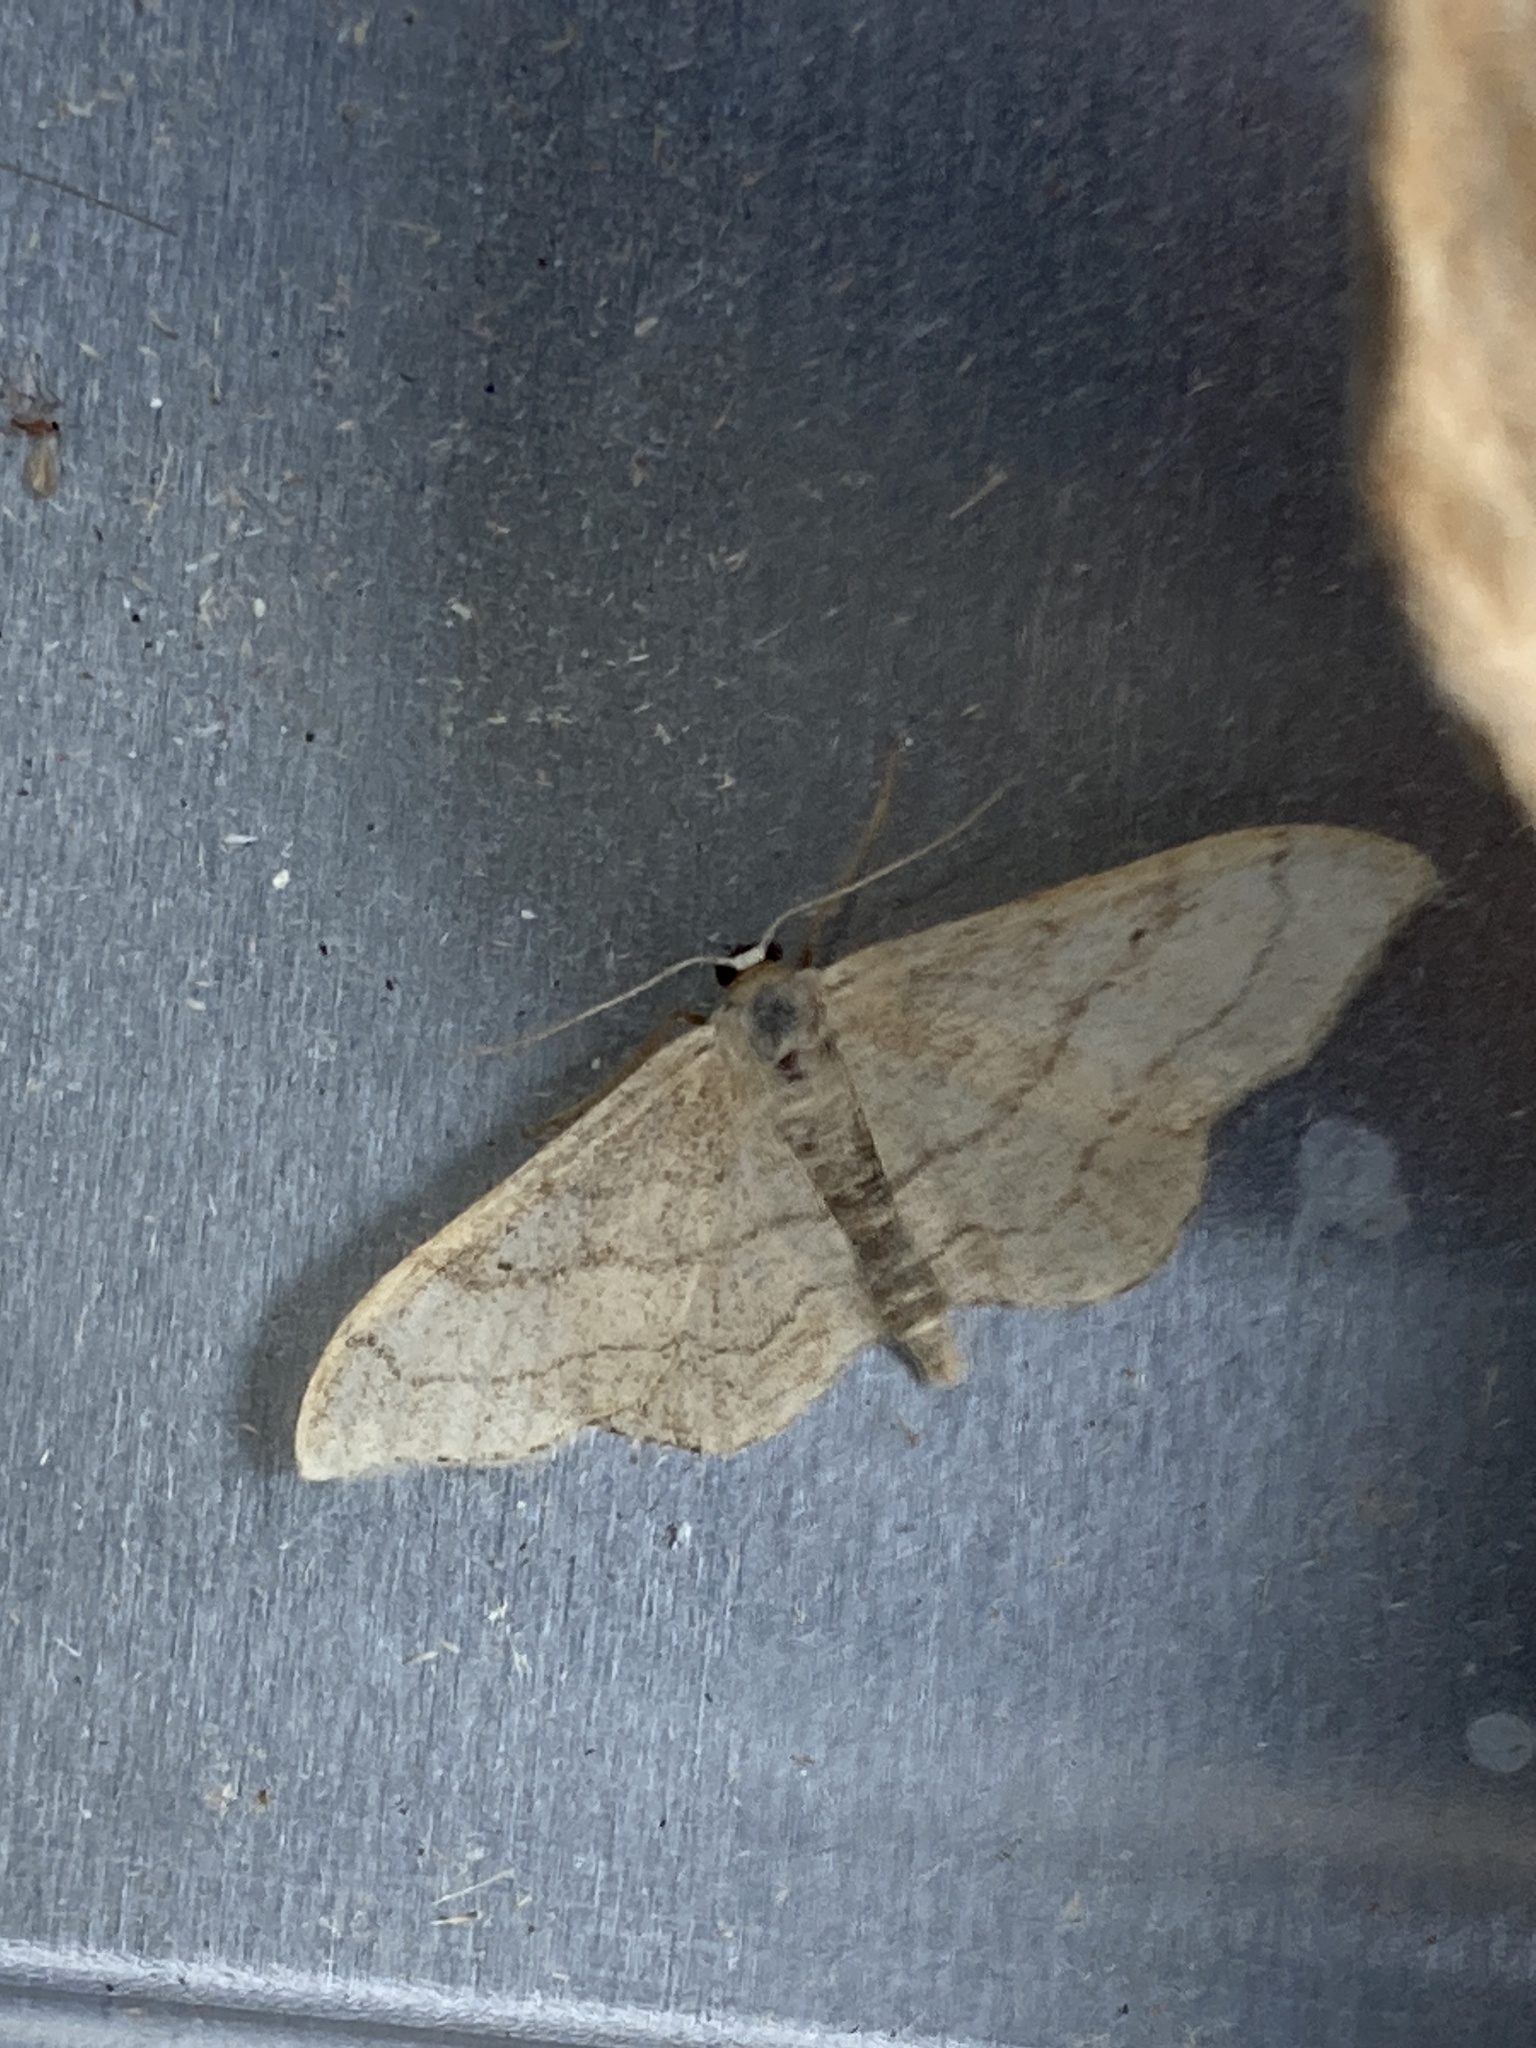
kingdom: Animalia
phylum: Arthropoda
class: Insecta
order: Lepidoptera
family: Geometridae
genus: Idaea
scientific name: Idaea aversata
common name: Riband wave
